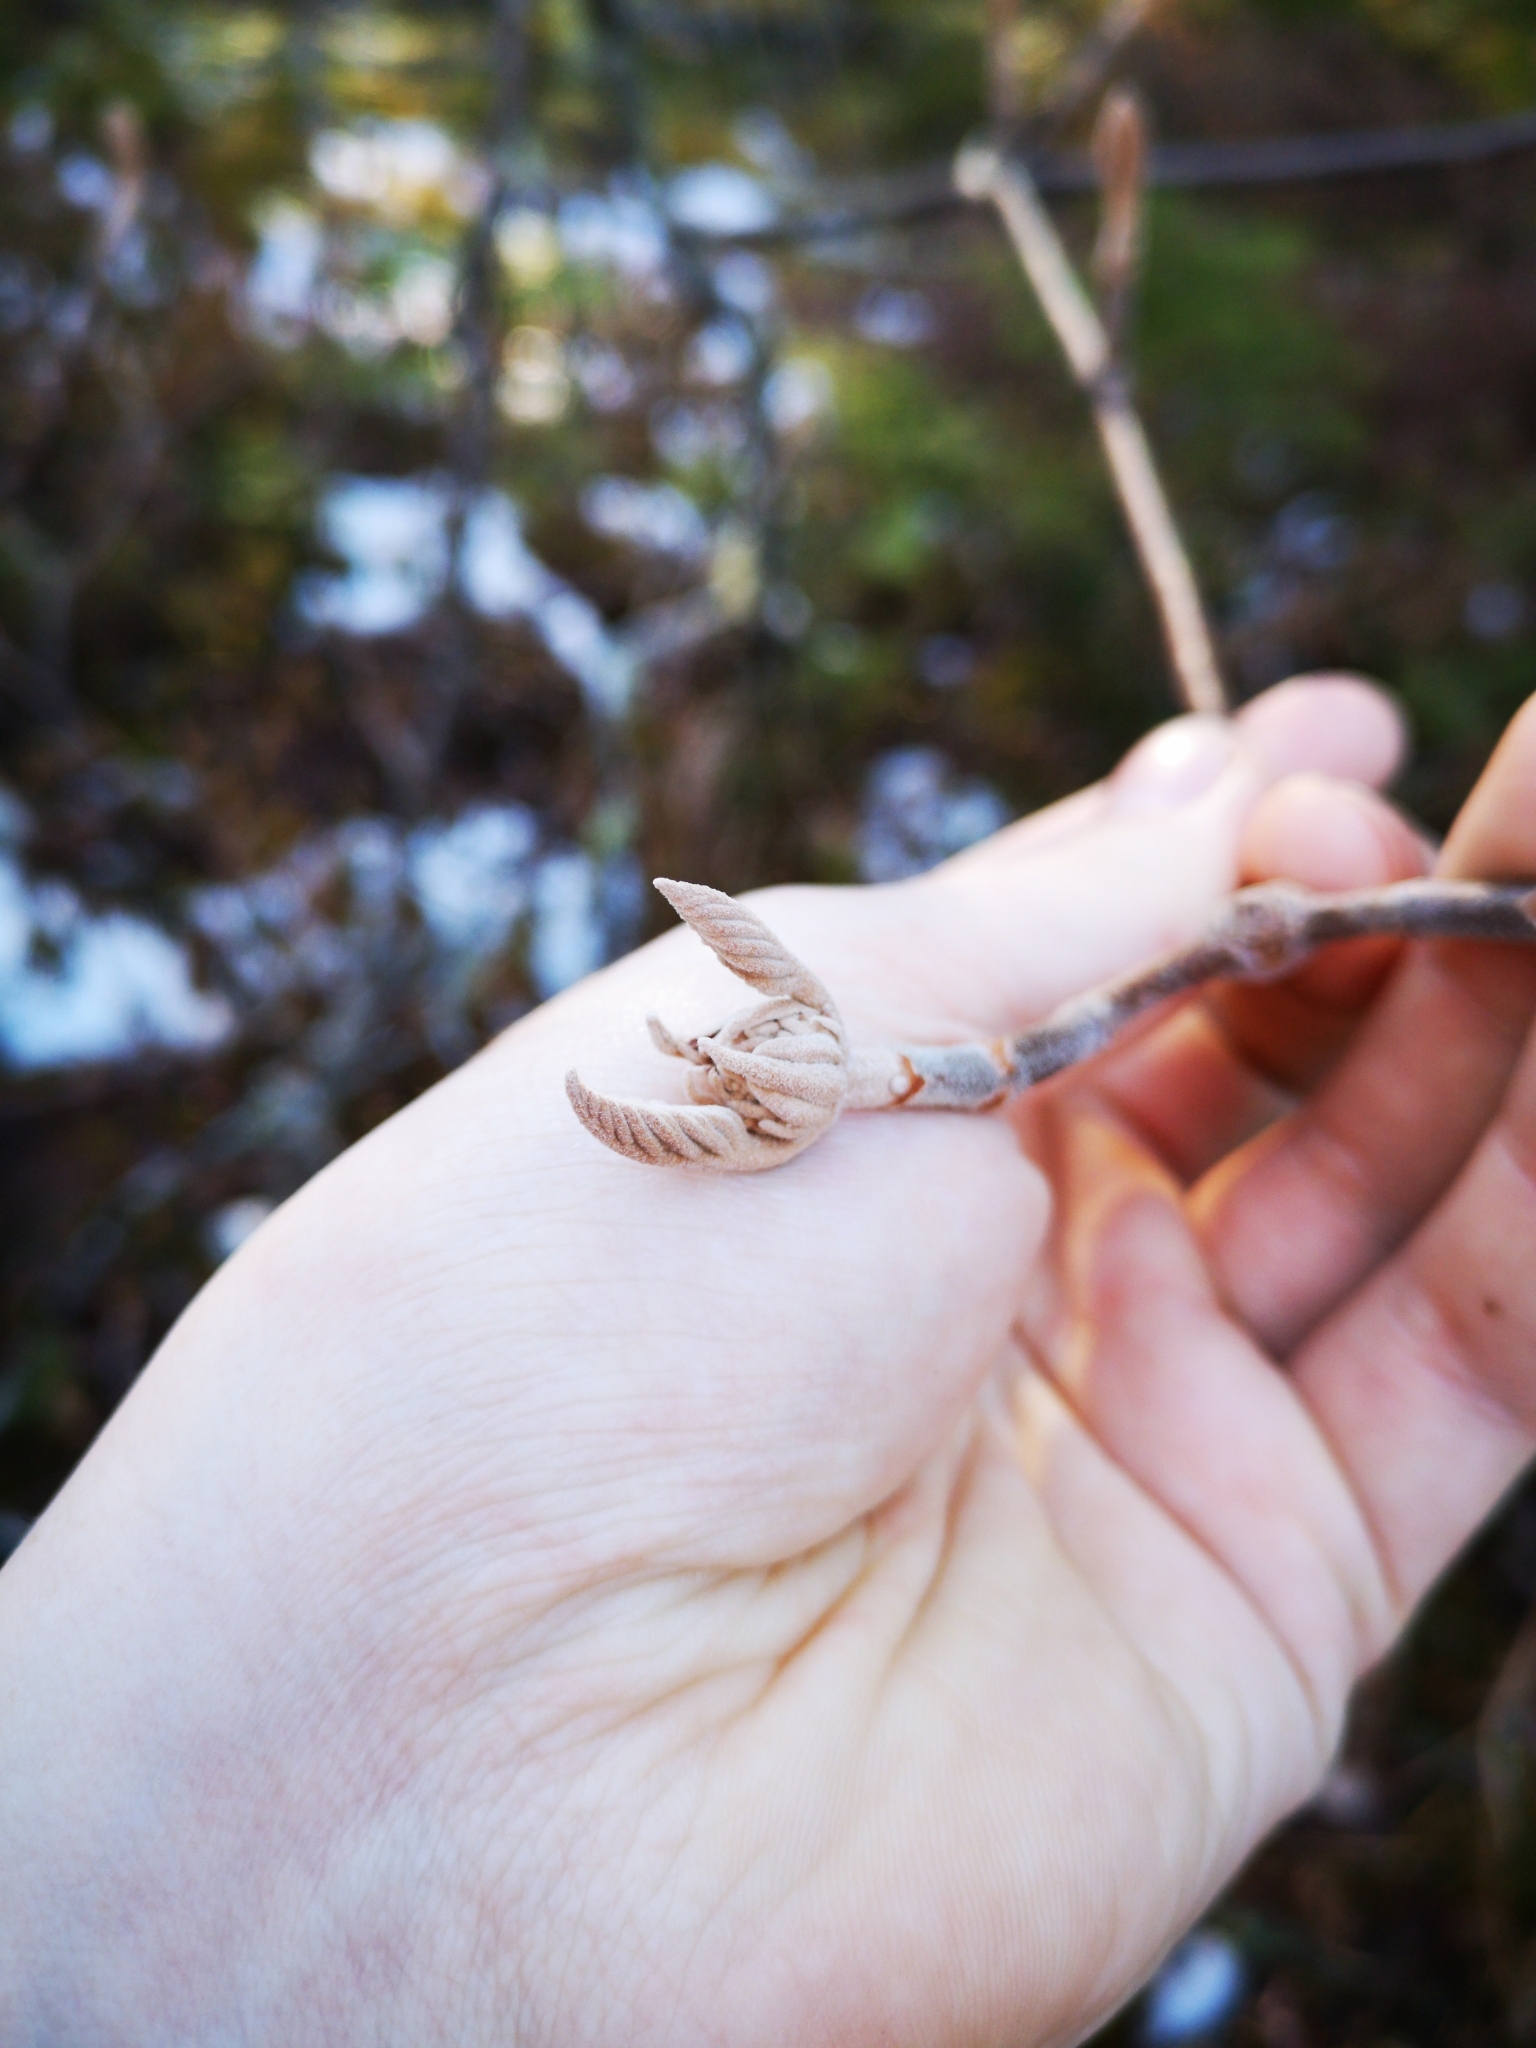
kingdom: Plantae
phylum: Tracheophyta
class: Magnoliopsida
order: Dipsacales
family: Viburnaceae
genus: Viburnum
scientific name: Viburnum lantanoides
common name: Hobblebush
